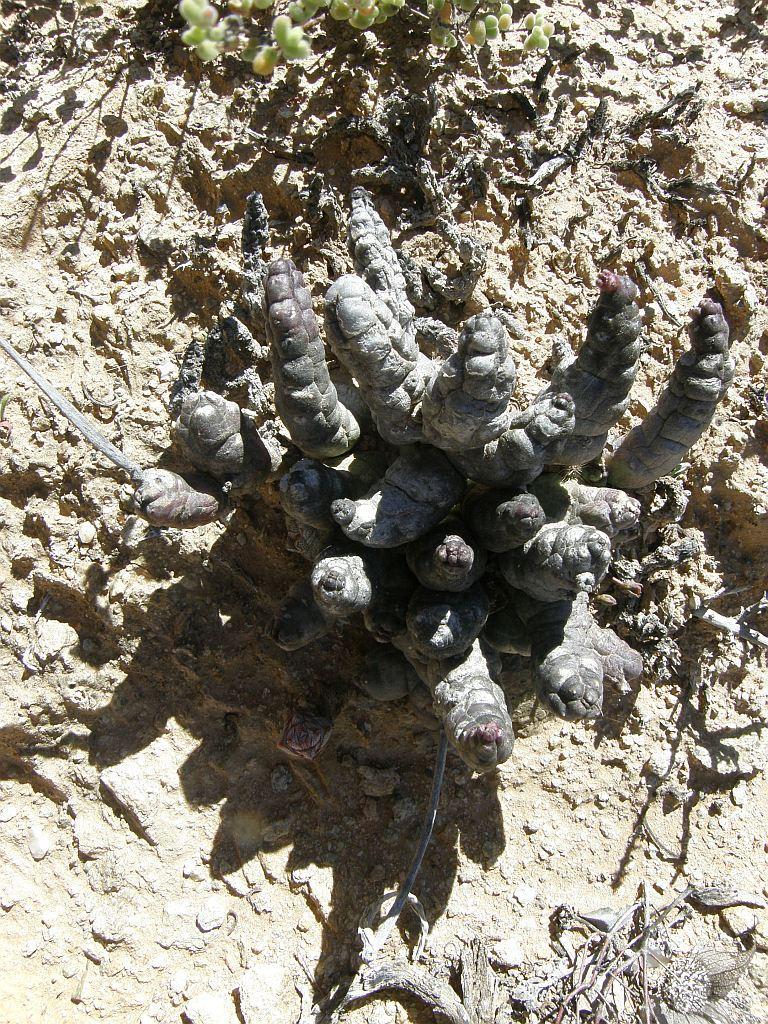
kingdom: Plantae
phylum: Tracheophyta
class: Magnoliopsida
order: Gentianales
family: Apocynaceae
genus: Ceropegia
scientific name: Ceropegia penduliflora
